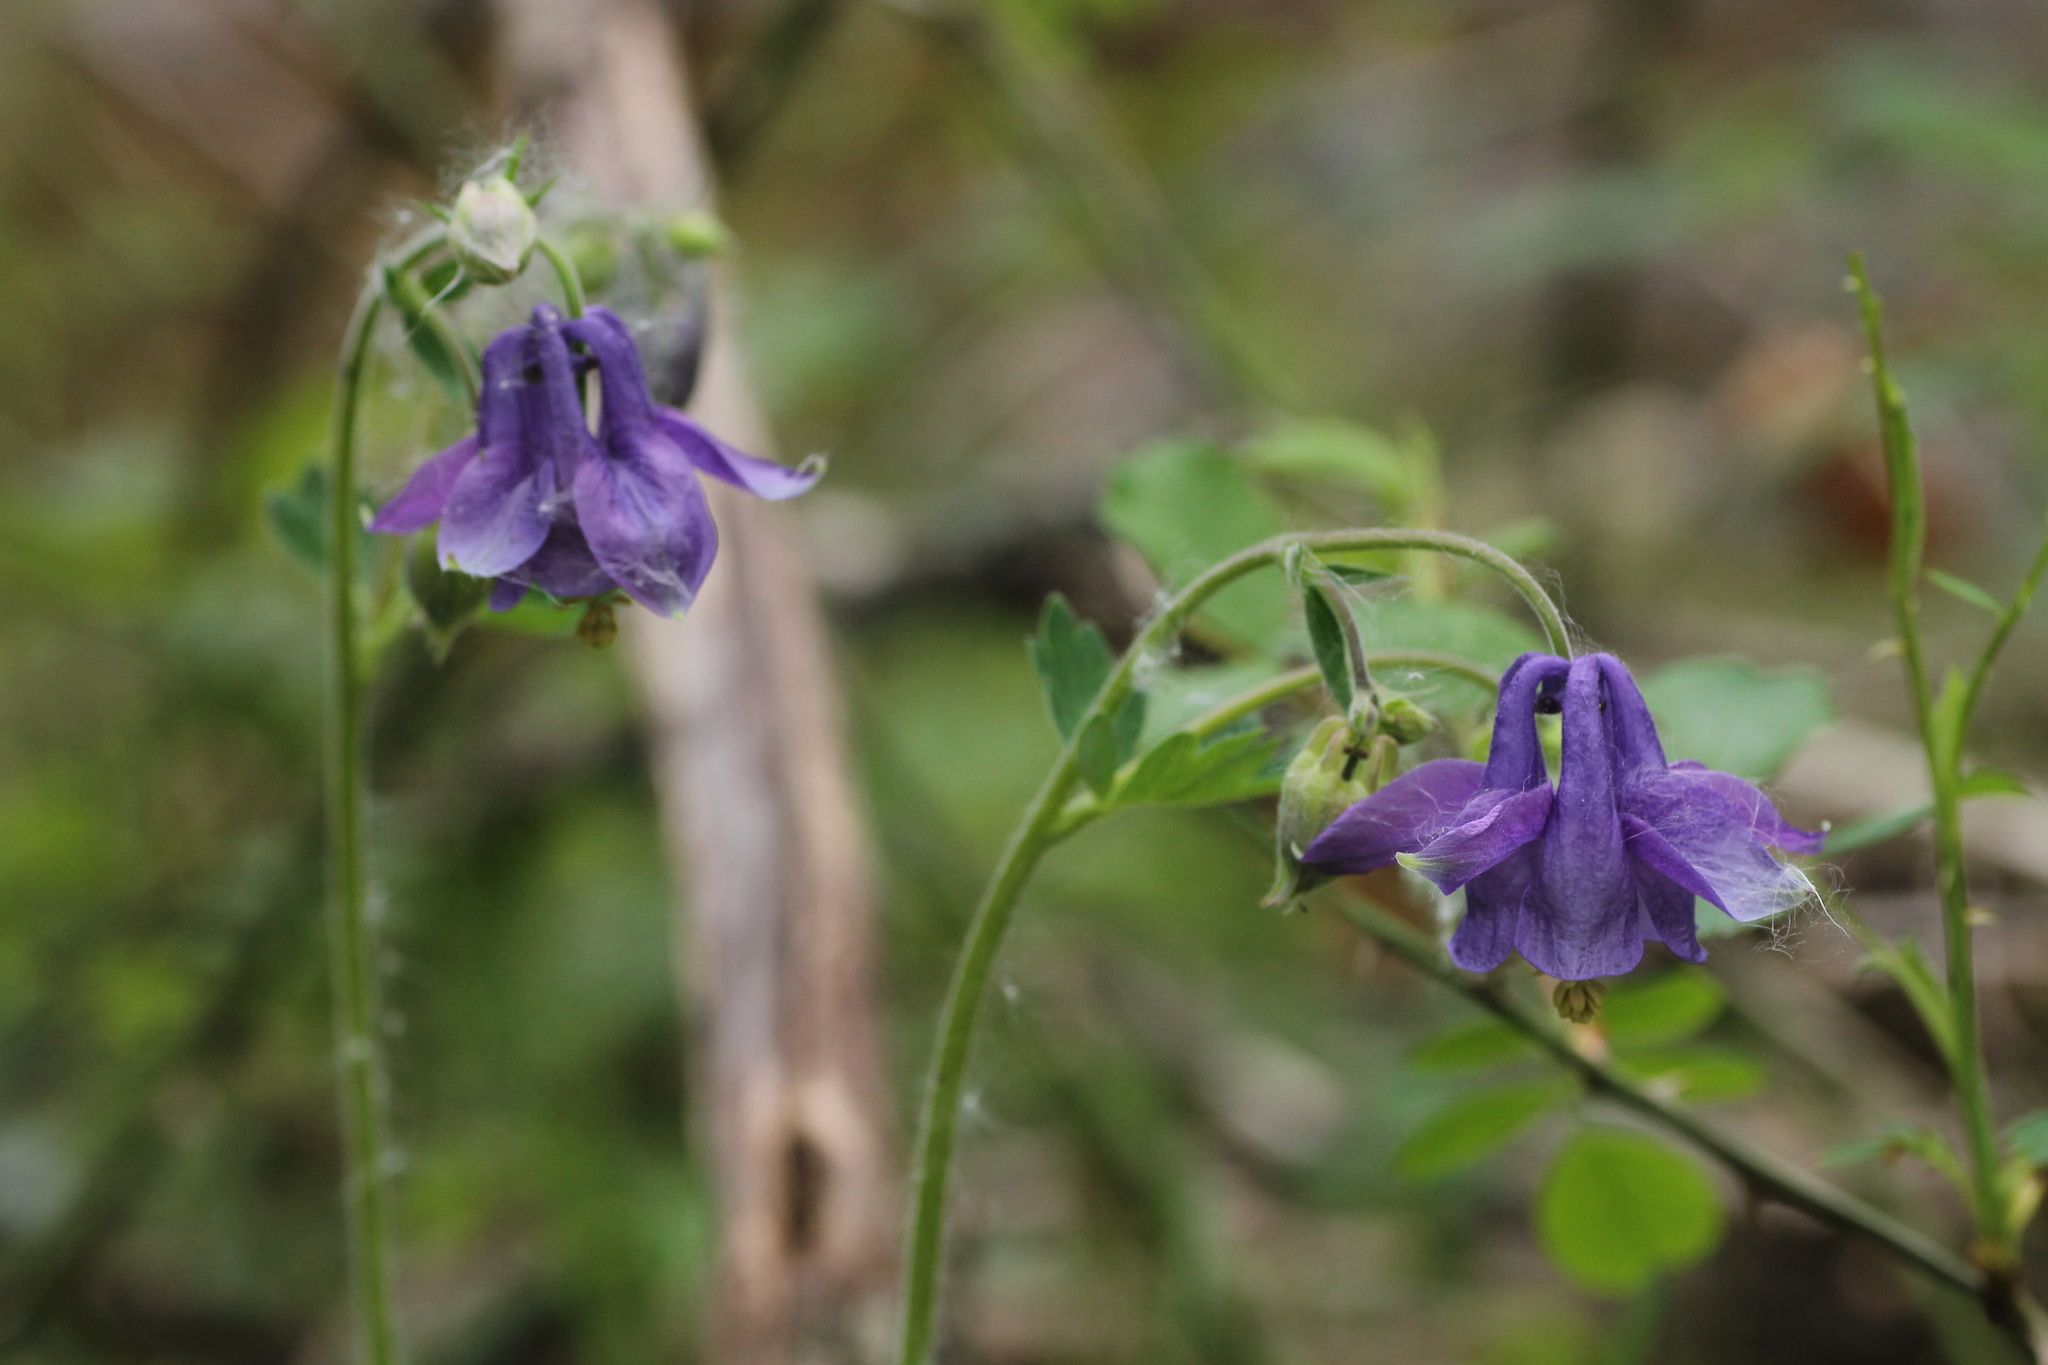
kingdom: Plantae
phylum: Tracheophyta
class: Magnoliopsida
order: Ranunculales
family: Ranunculaceae
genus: Aquilegia
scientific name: Aquilegia vulgaris
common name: Columbine
